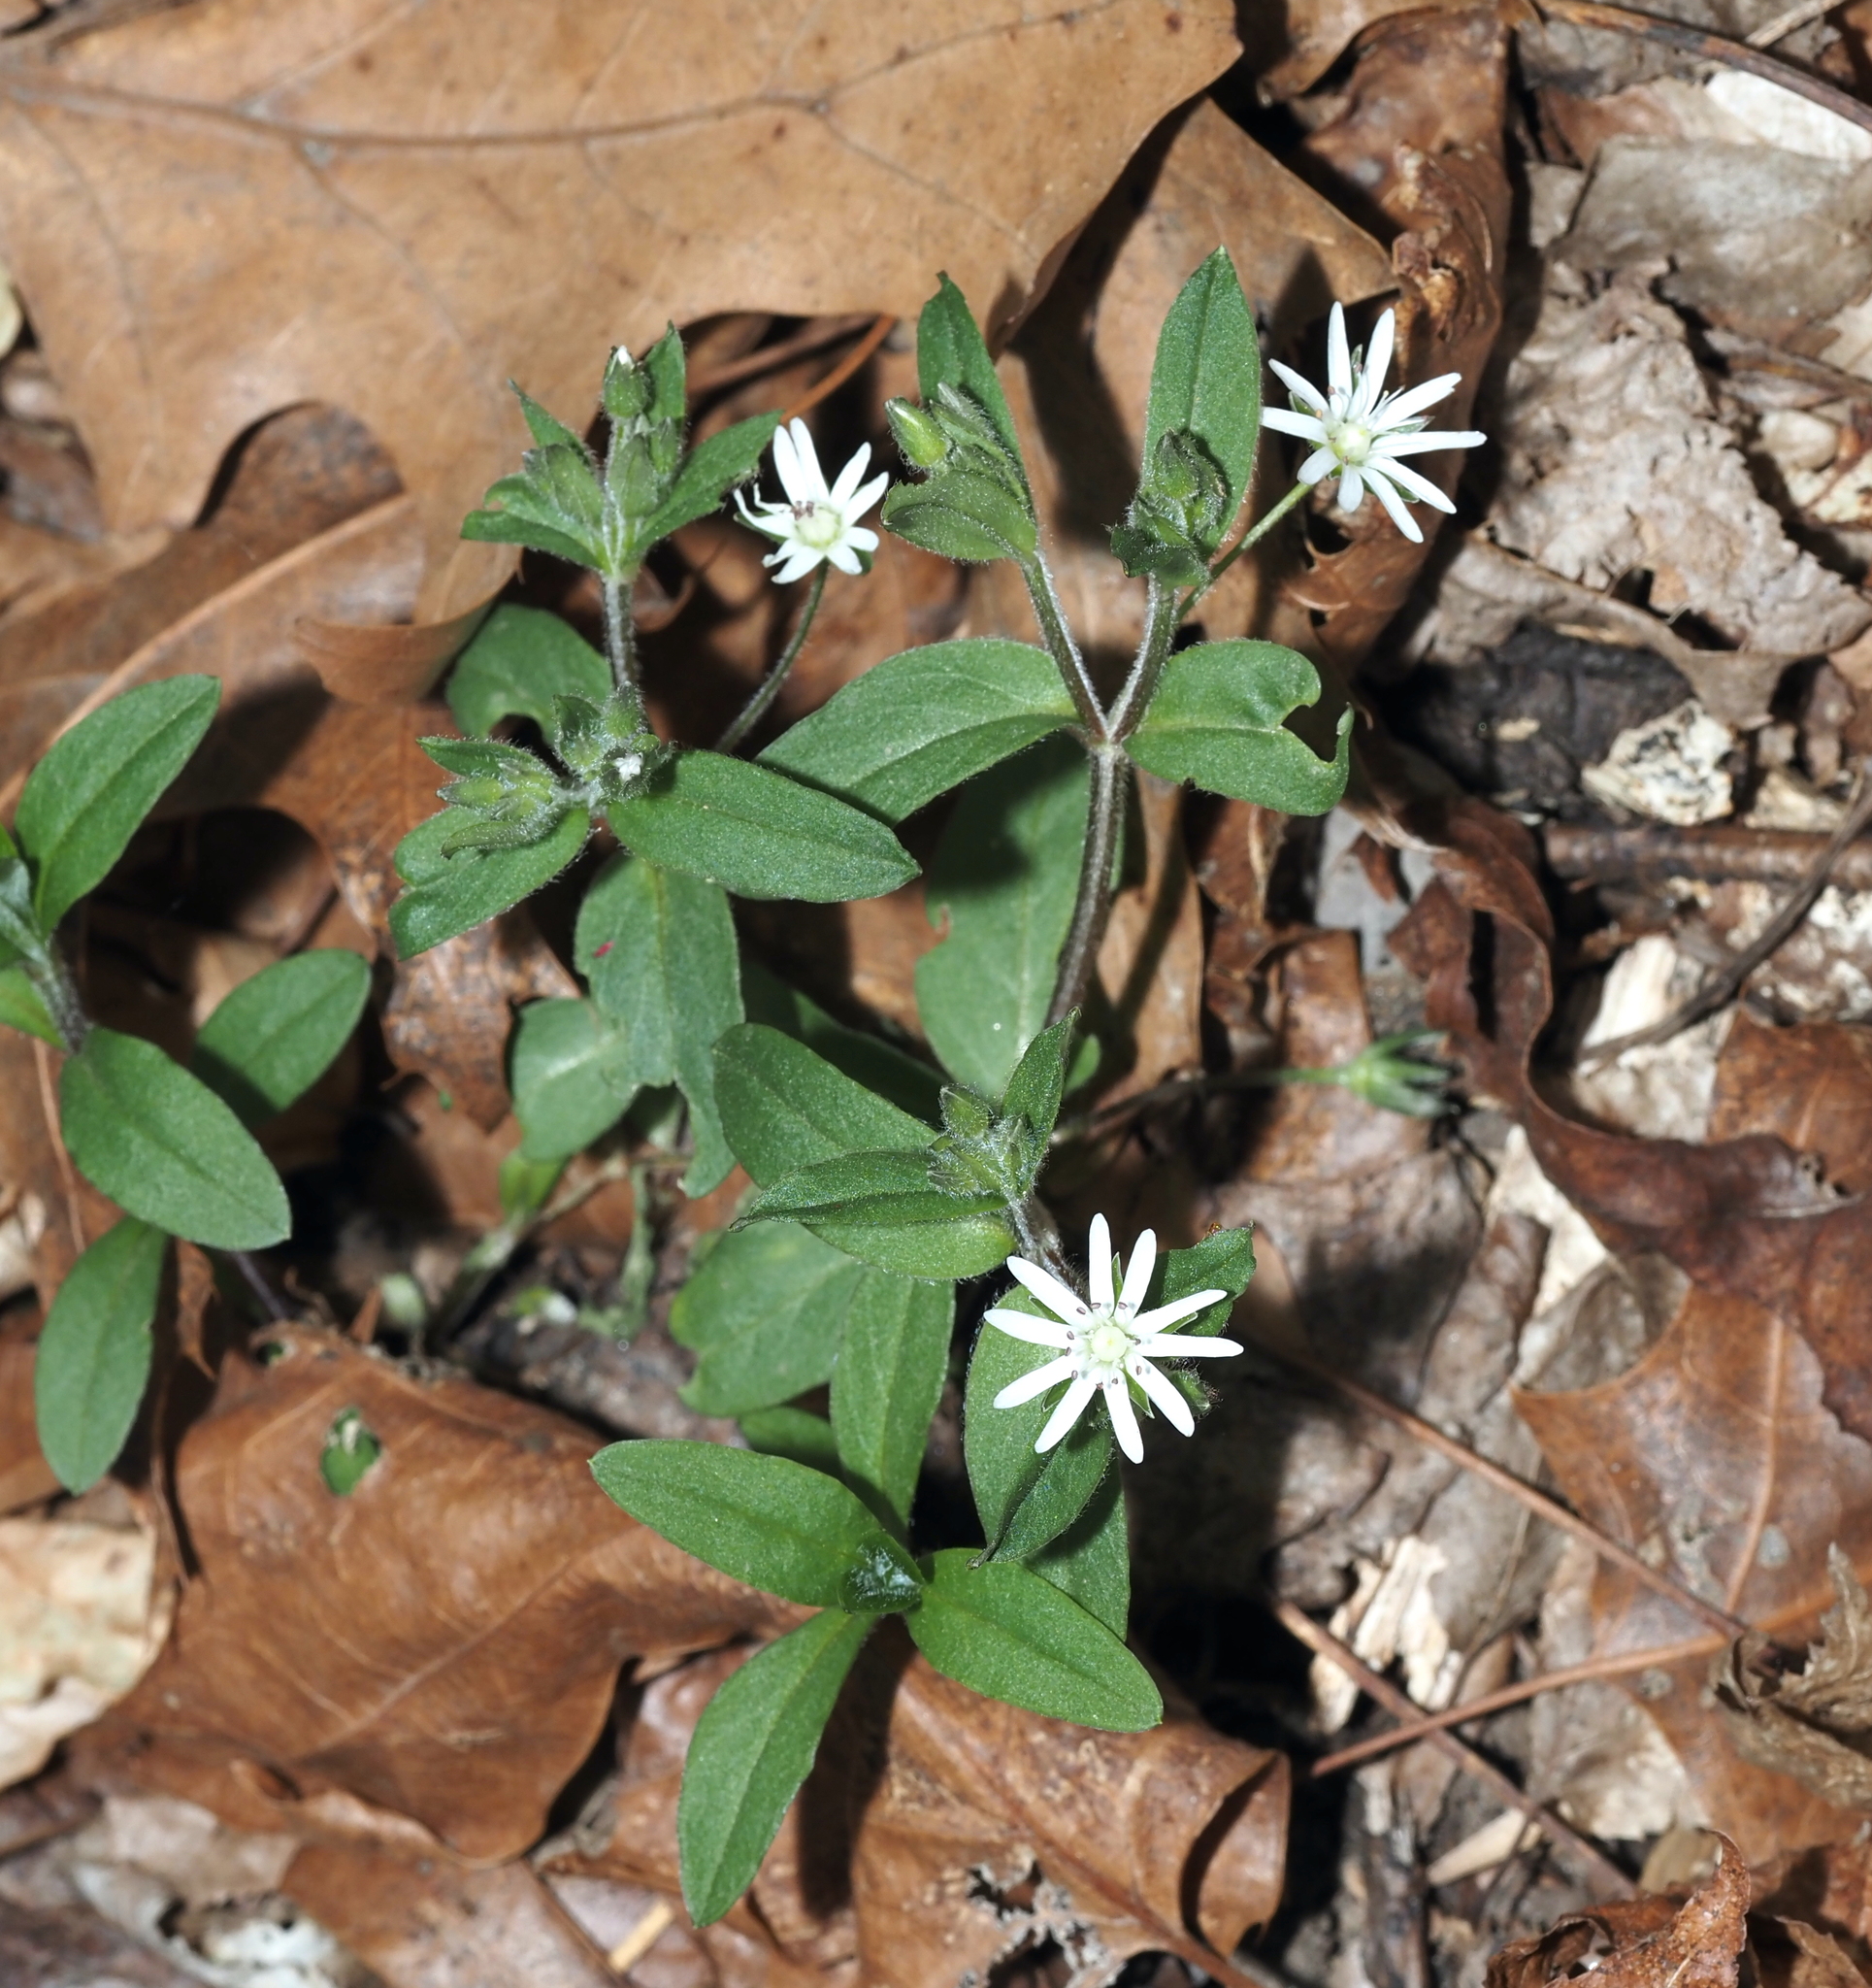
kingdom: Plantae
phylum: Tracheophyta
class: Magnoliopsida
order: Caryophyllales
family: Caryophyllaceae
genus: Stellaria
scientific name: Stellaria pubera
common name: Star chickweed
